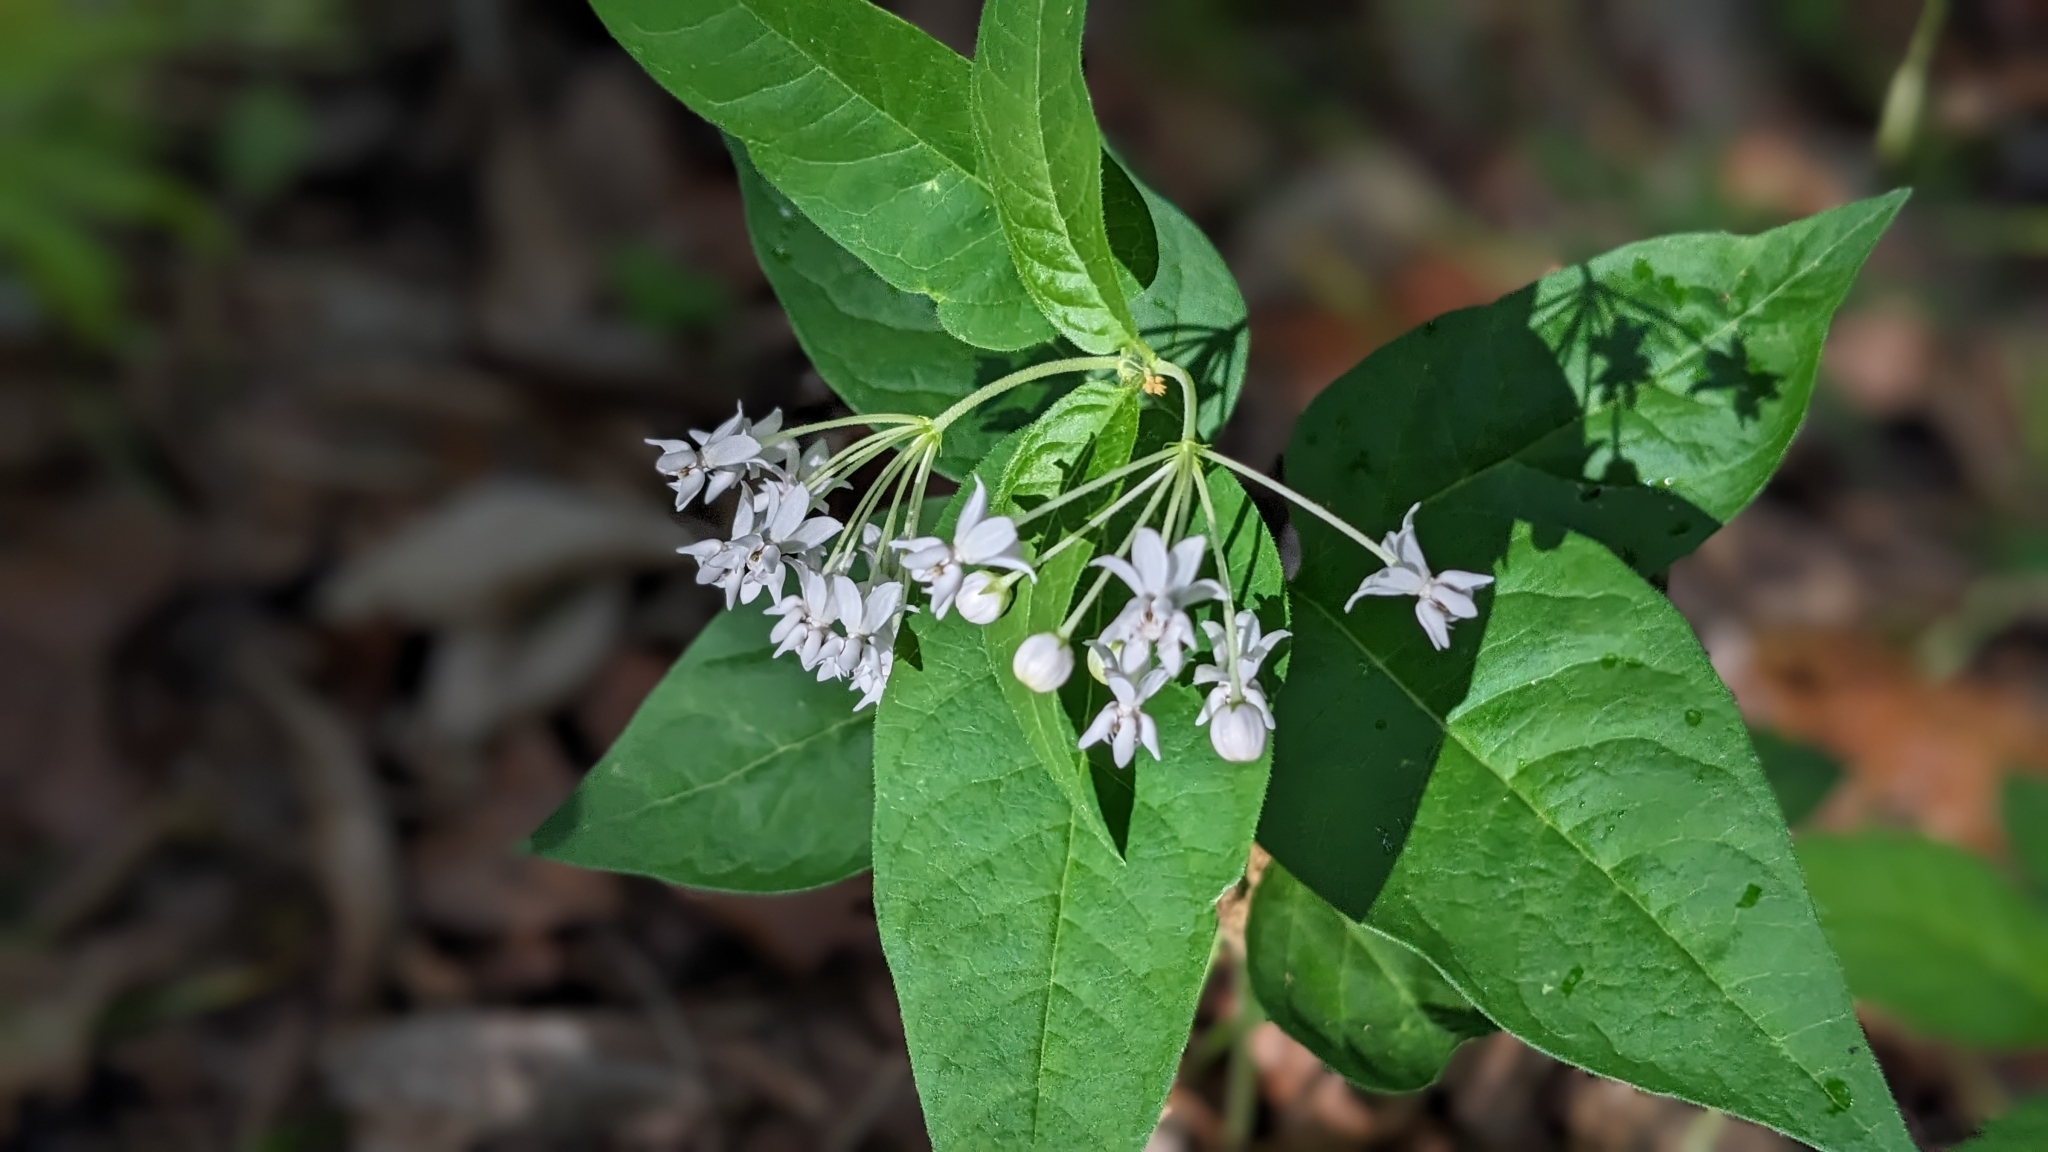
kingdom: Plantae
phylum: Tracheophyta
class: Magnoliopsida
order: Gentianales
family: Apocynaceae
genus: Asclepias
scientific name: Asclepias quadrifolia
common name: Whorled milkweed
